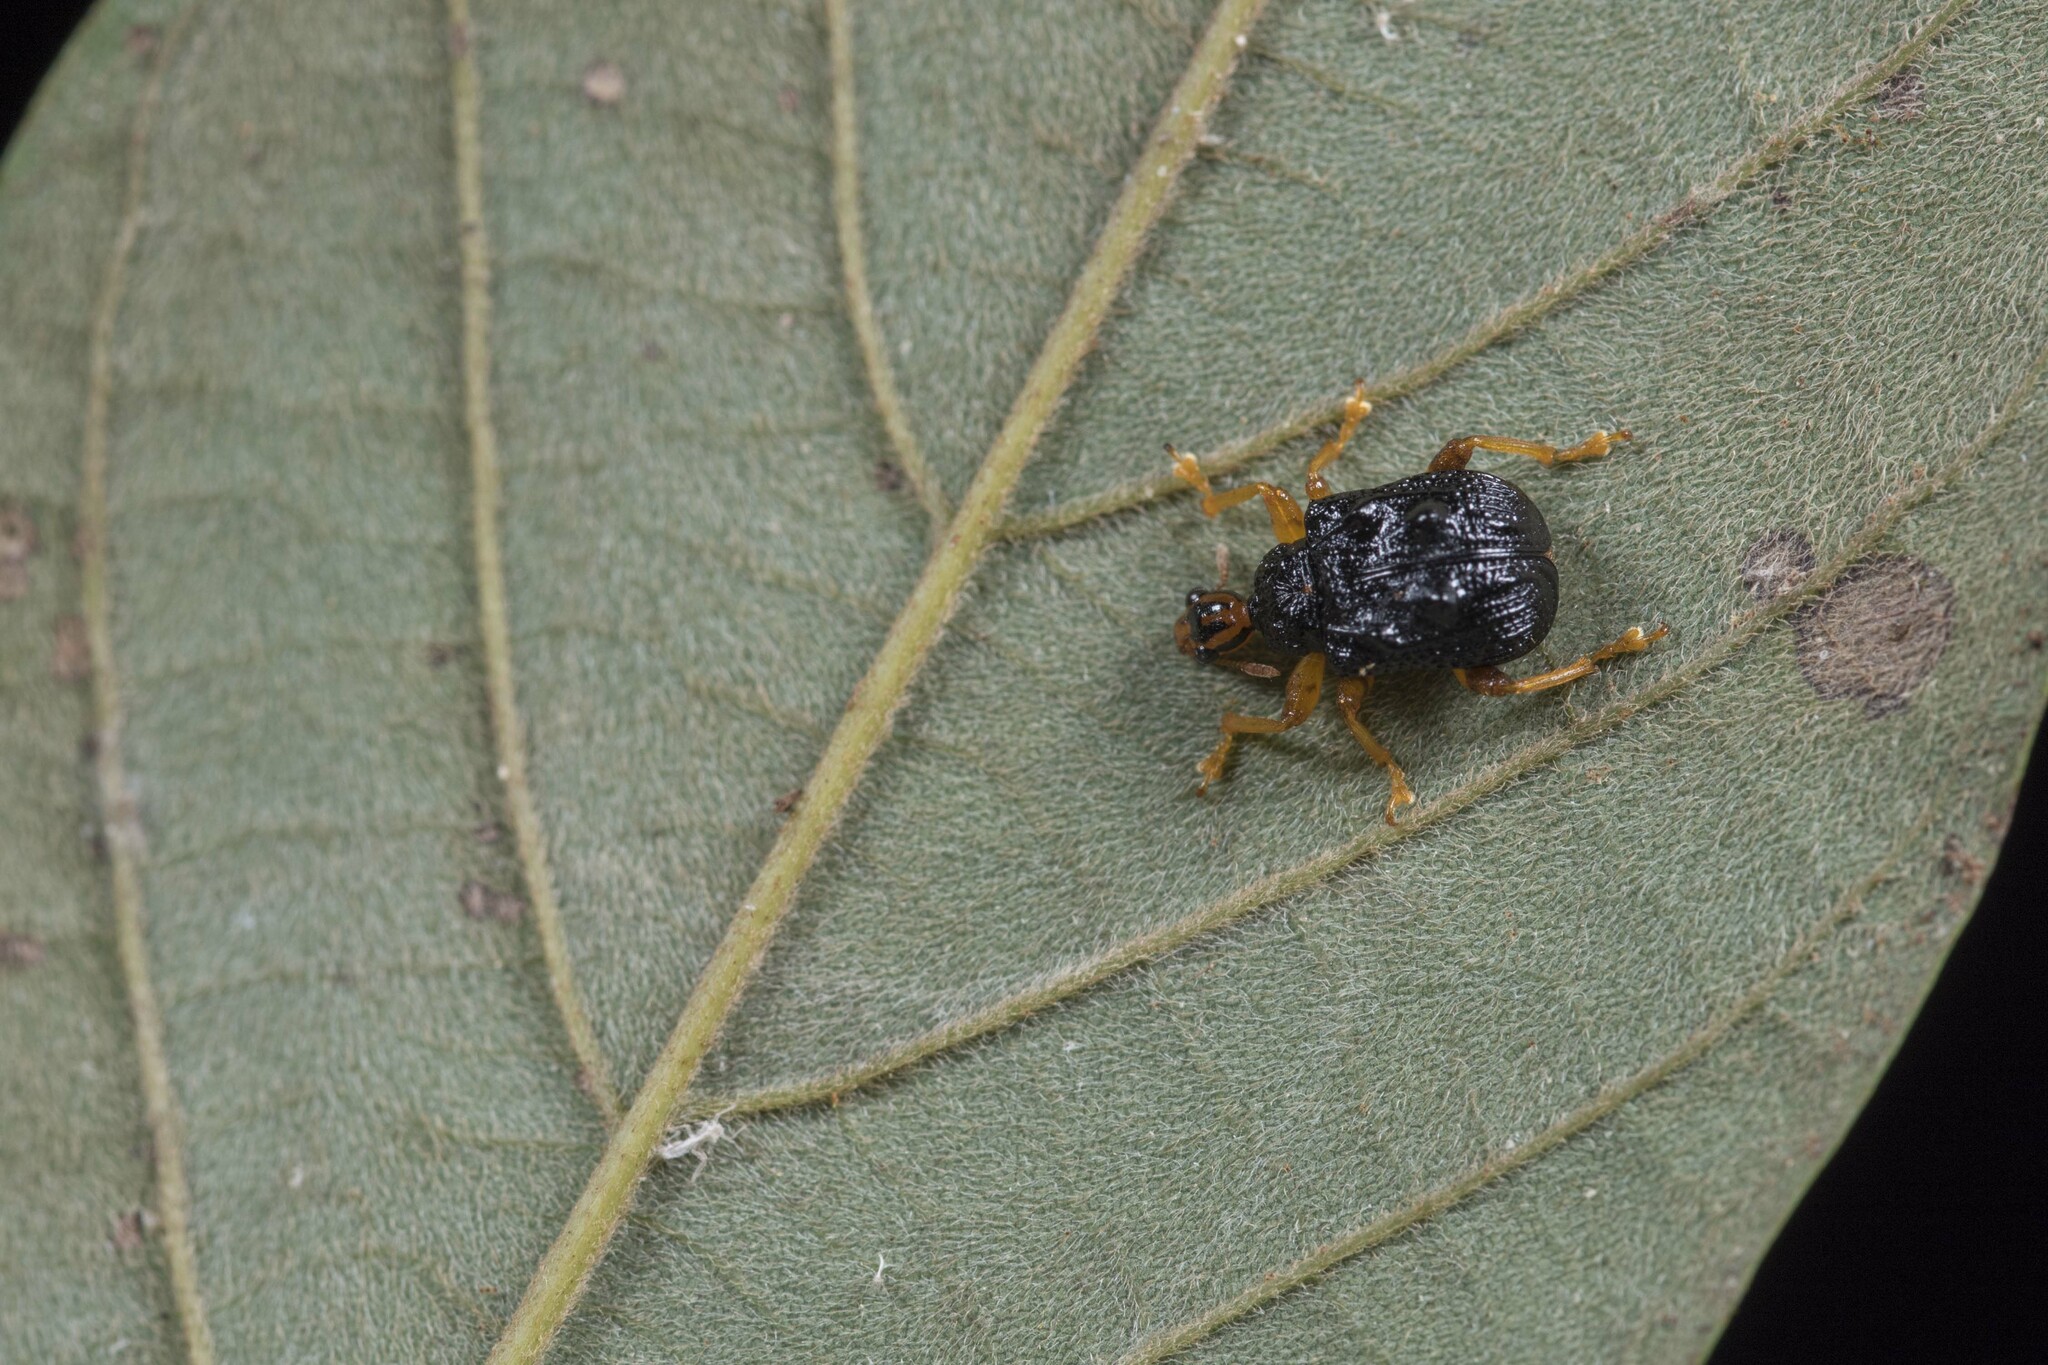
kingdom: Animalia
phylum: Arthropoda
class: Insecta
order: Coleoptera
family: Attelabidae
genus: Paroplapoderus
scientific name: Paroplapoderus tristoides
